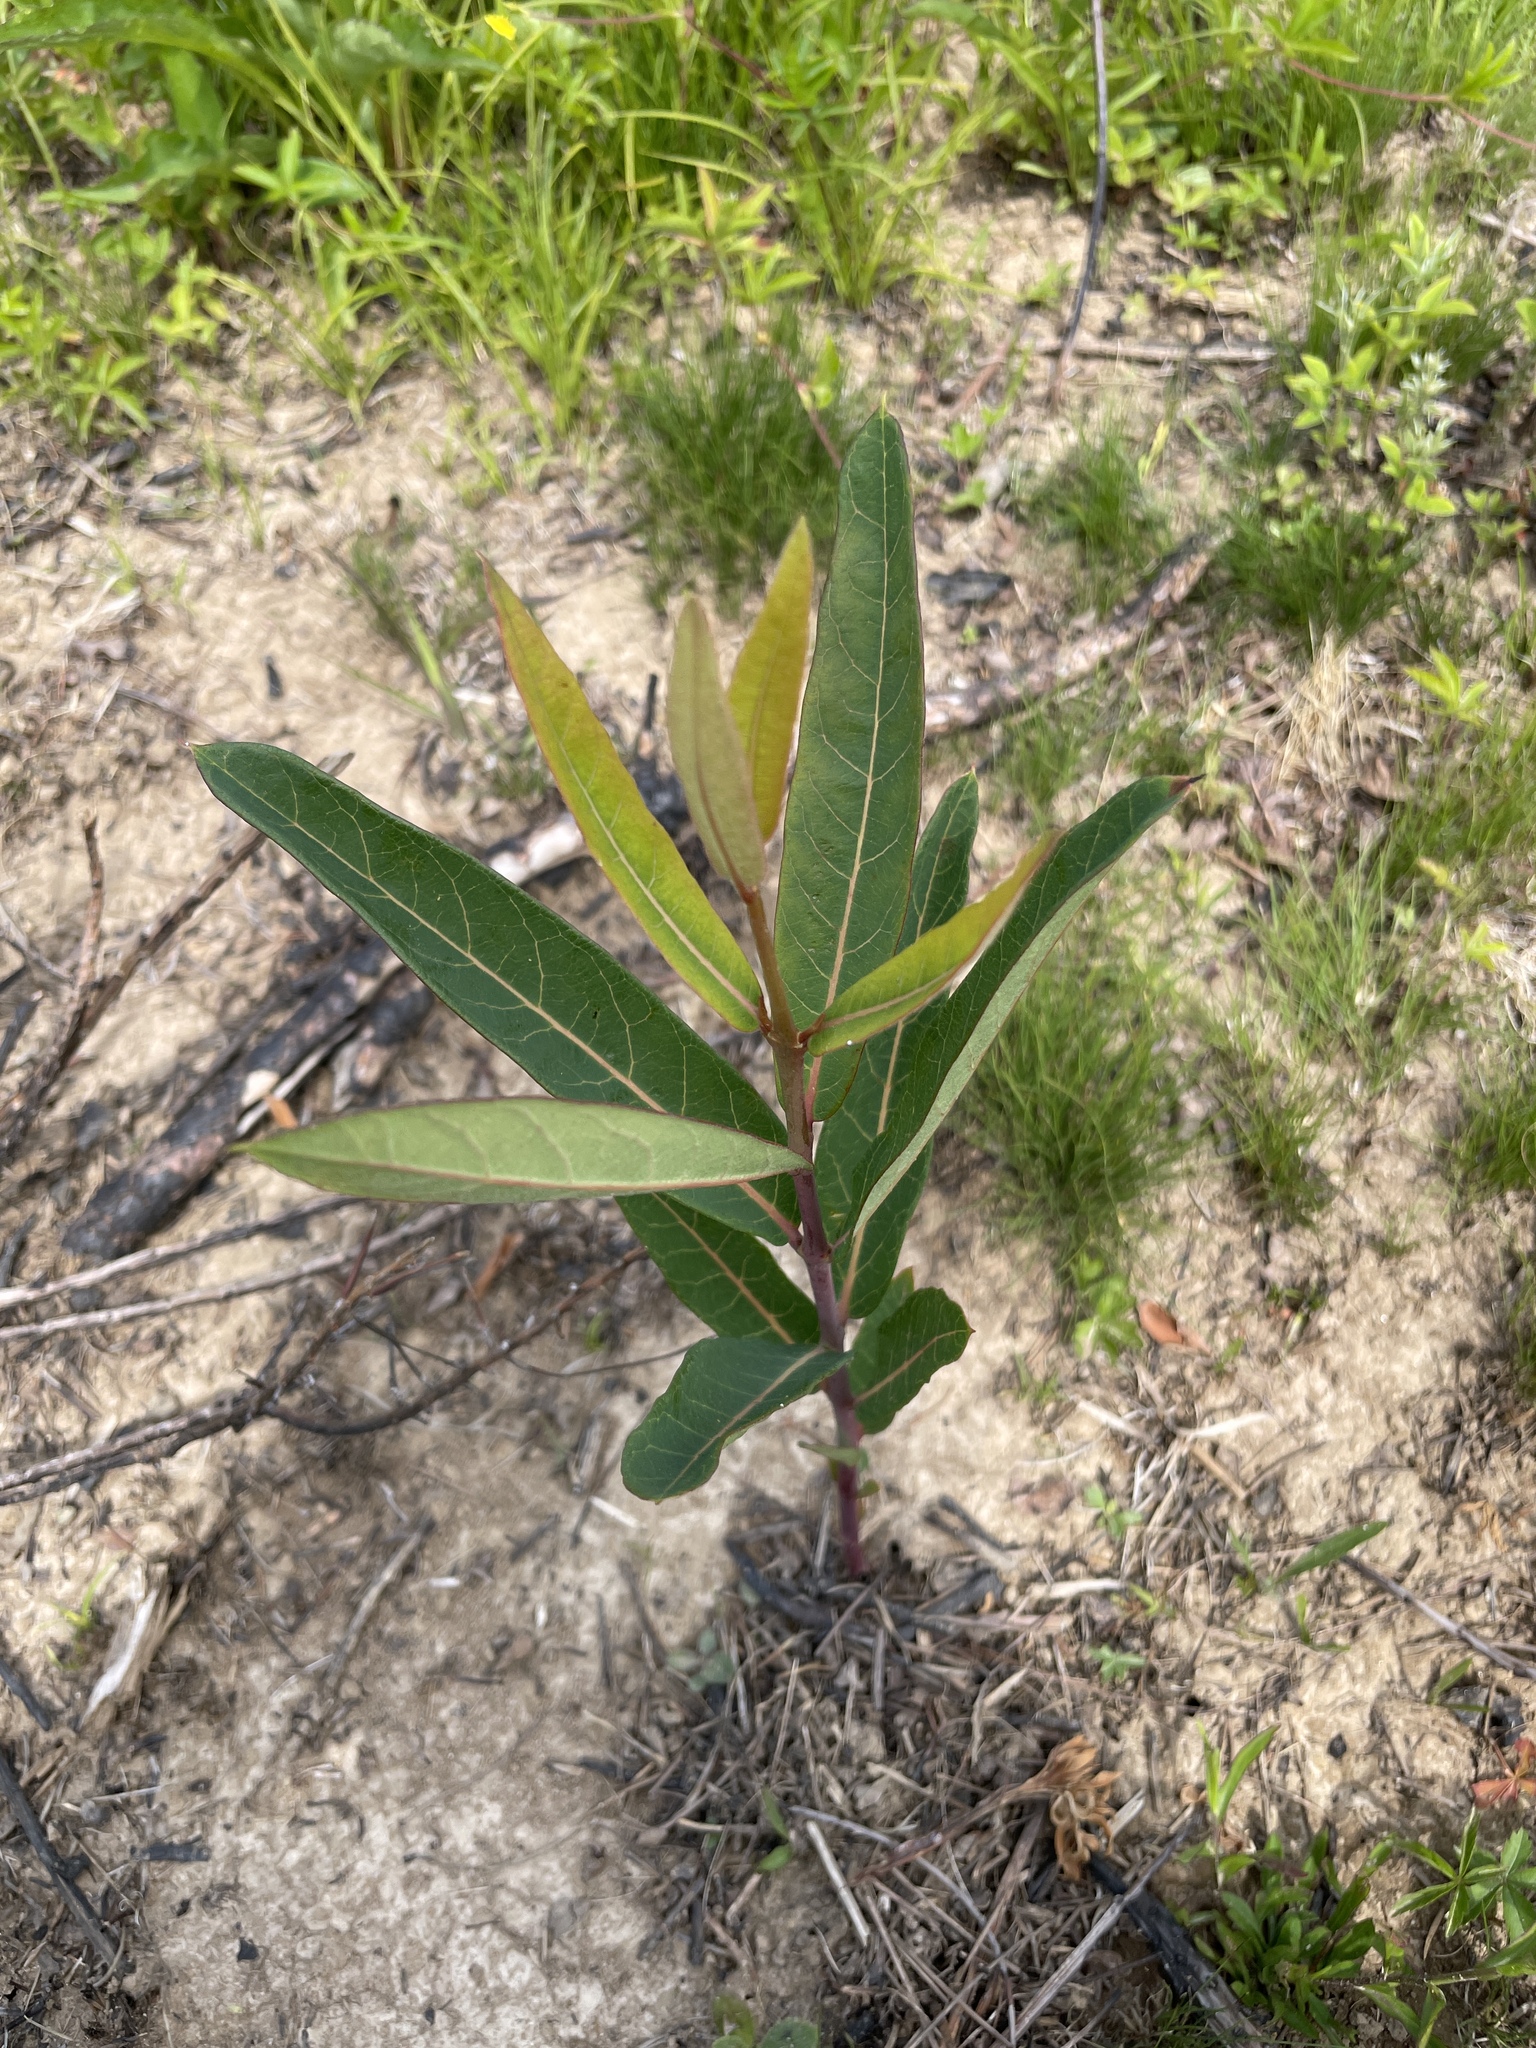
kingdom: Plantae
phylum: Tracheophyta
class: Magnoliopsida
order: Gentianales
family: Apocynaceae
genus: Asclepias
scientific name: Asclepias syriaca
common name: Common milkweed
